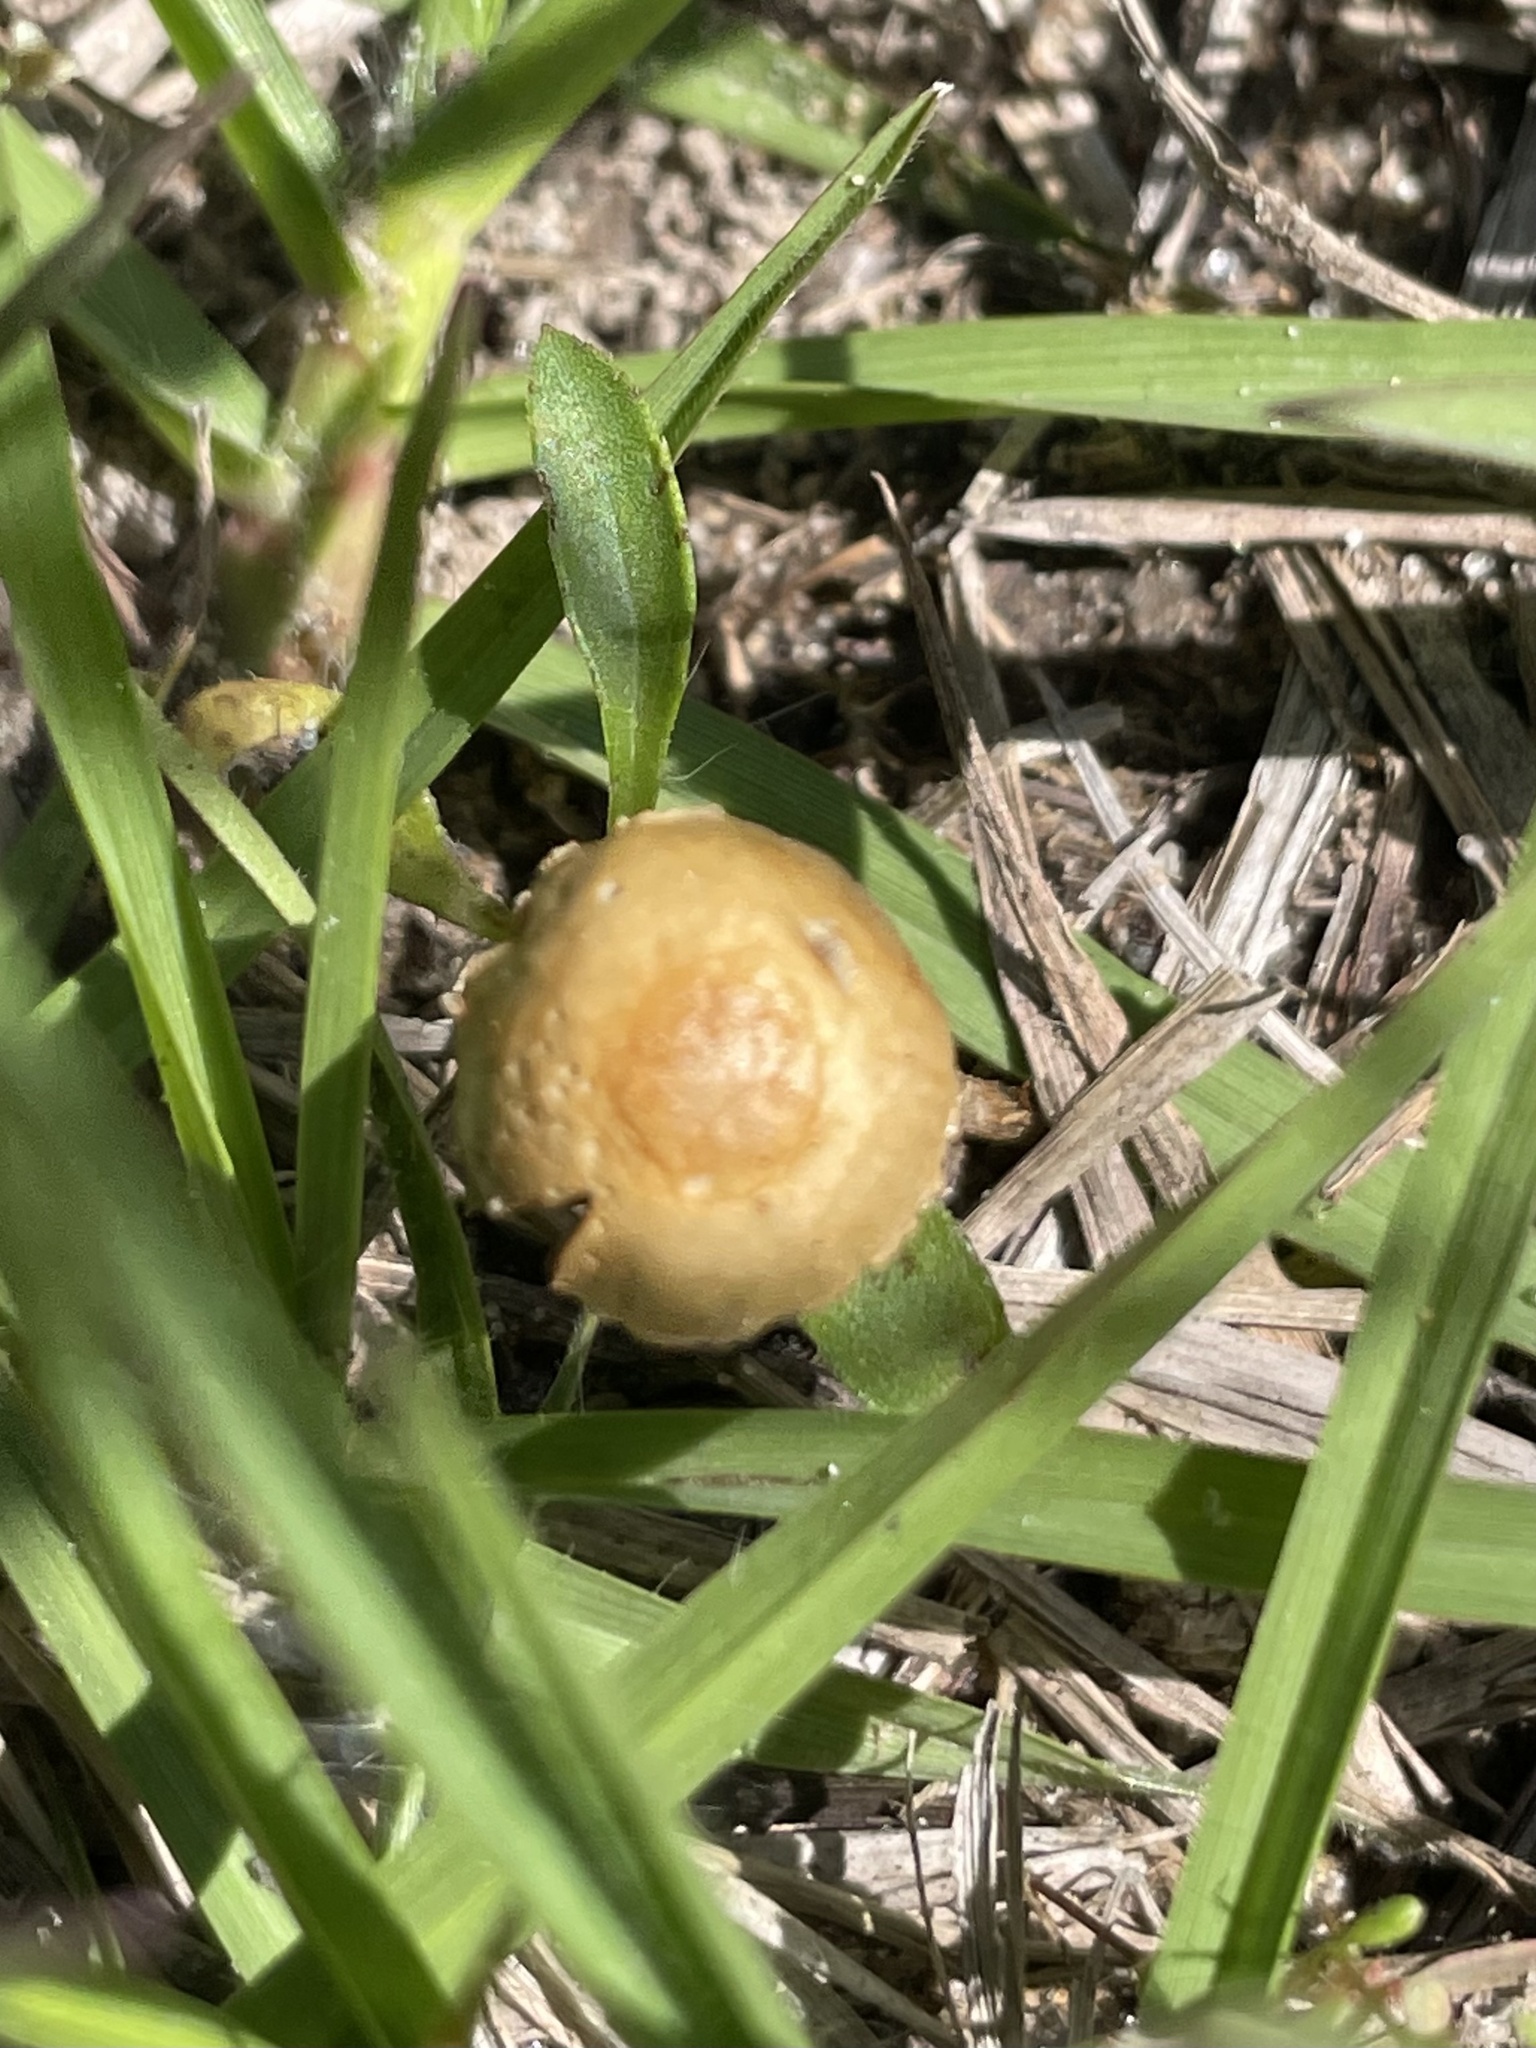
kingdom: Fungi
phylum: Basidiomycota
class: Agaricomycetes
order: Agaricales
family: Strophariaceae
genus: Agrocybe
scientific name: Agrocybe pediades
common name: Common fieldcap
